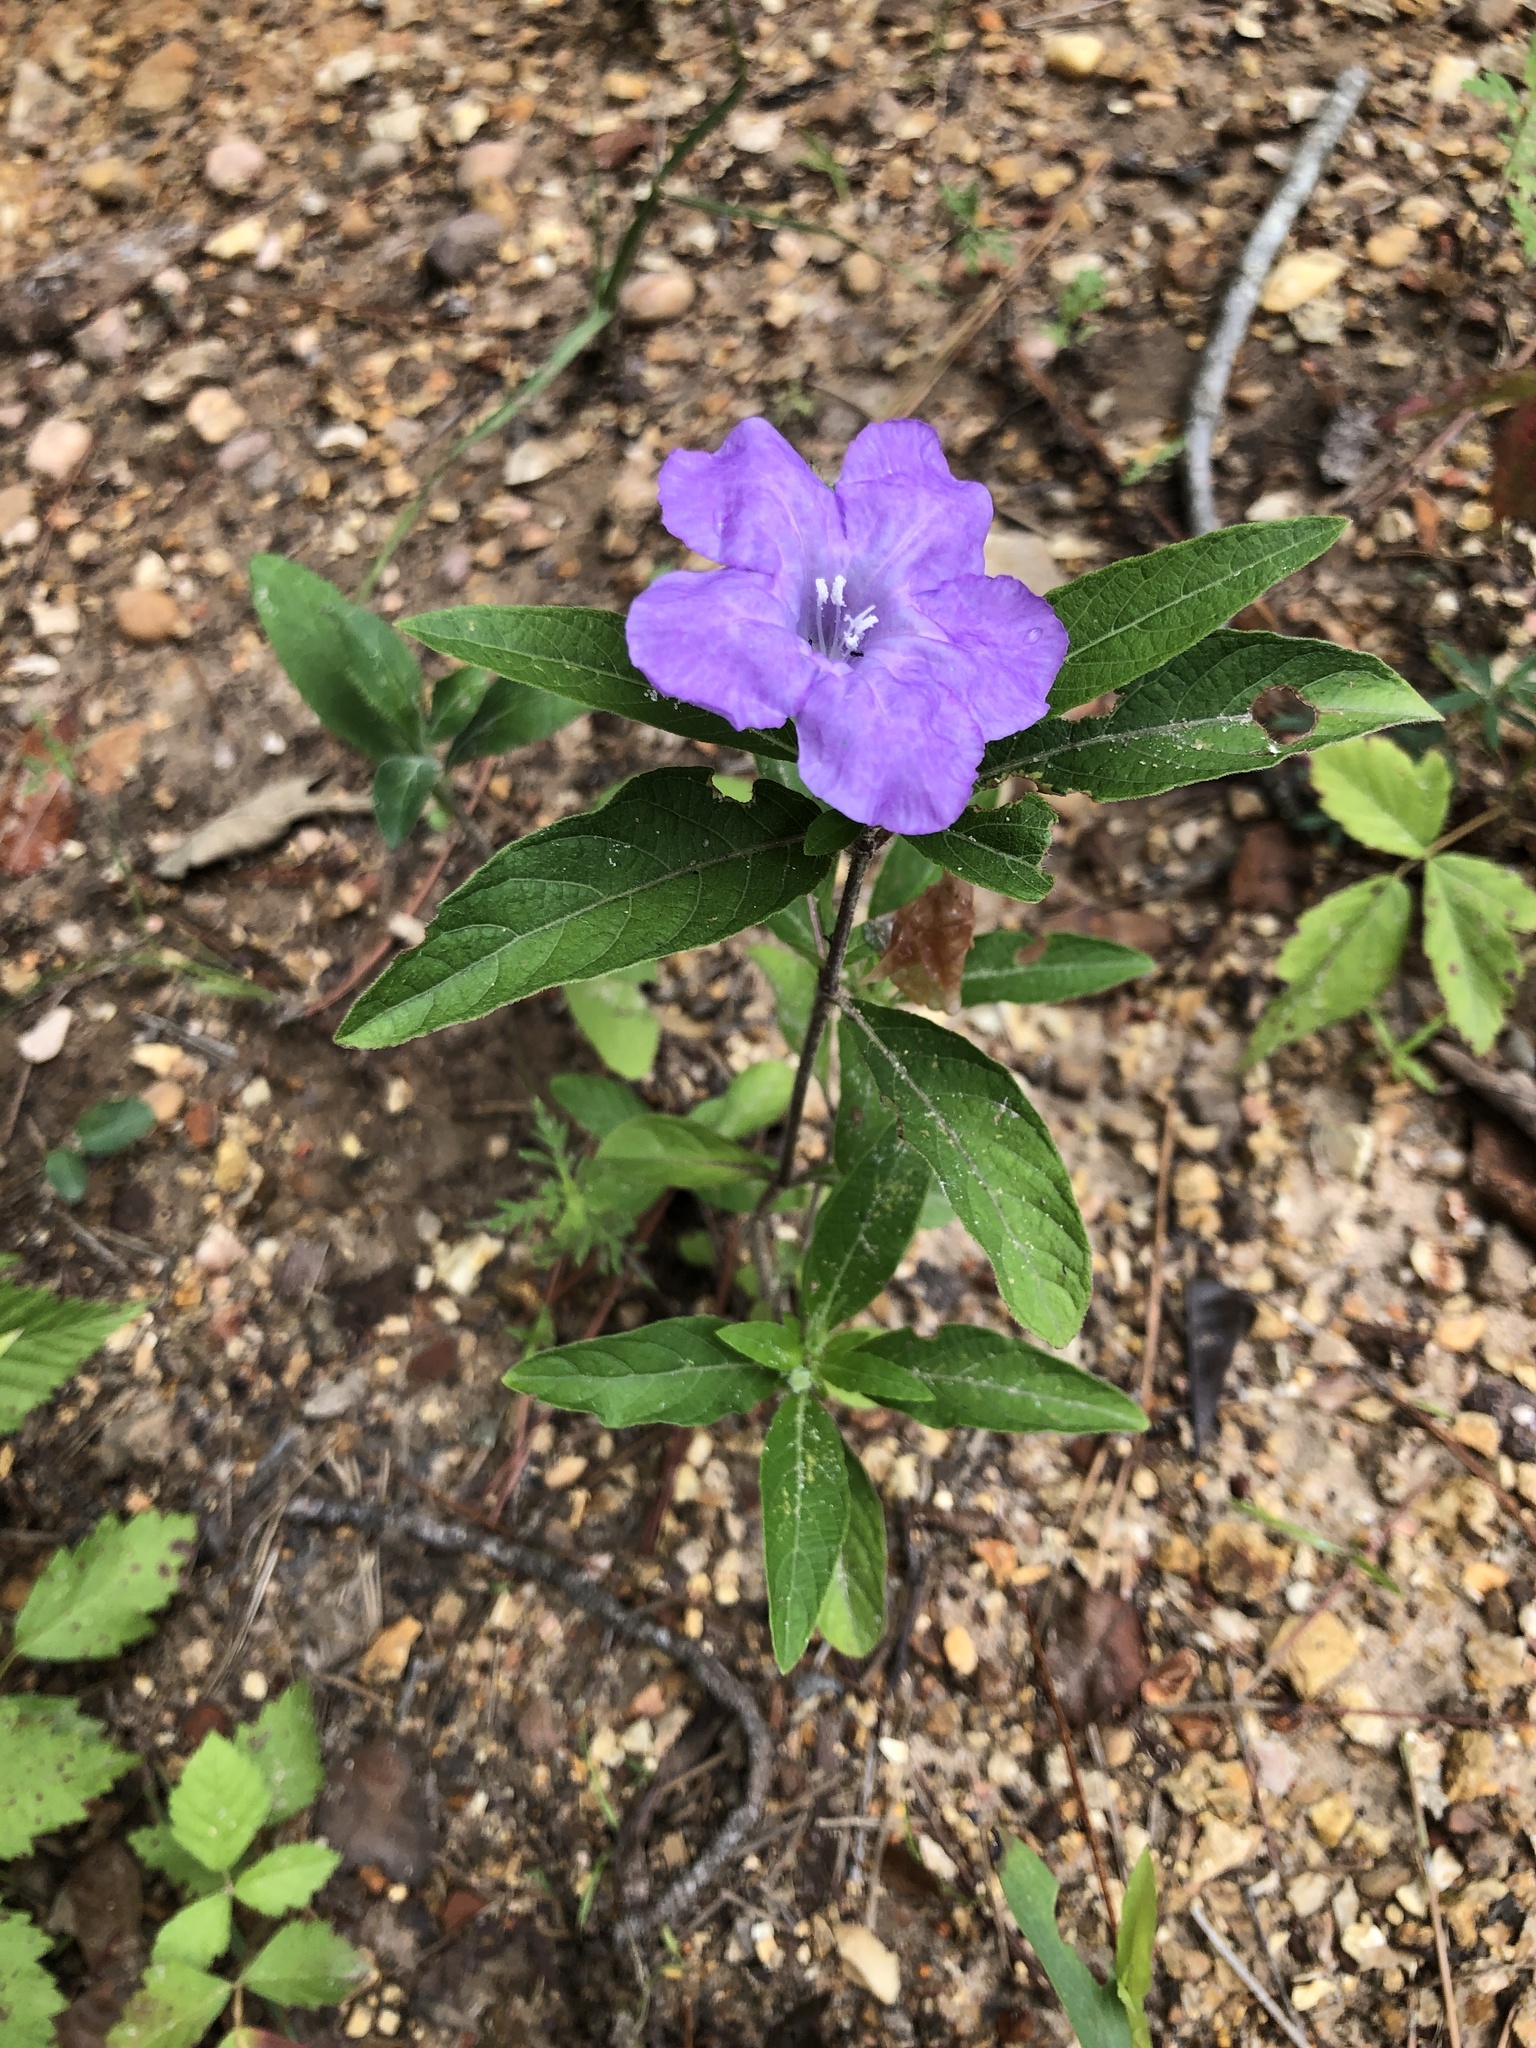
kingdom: Plantae
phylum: Tracheophyta
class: Magnoliopsida
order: Lamiales
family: Acanthaceae
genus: Ruellia
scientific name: Ruellia caroliniensis
